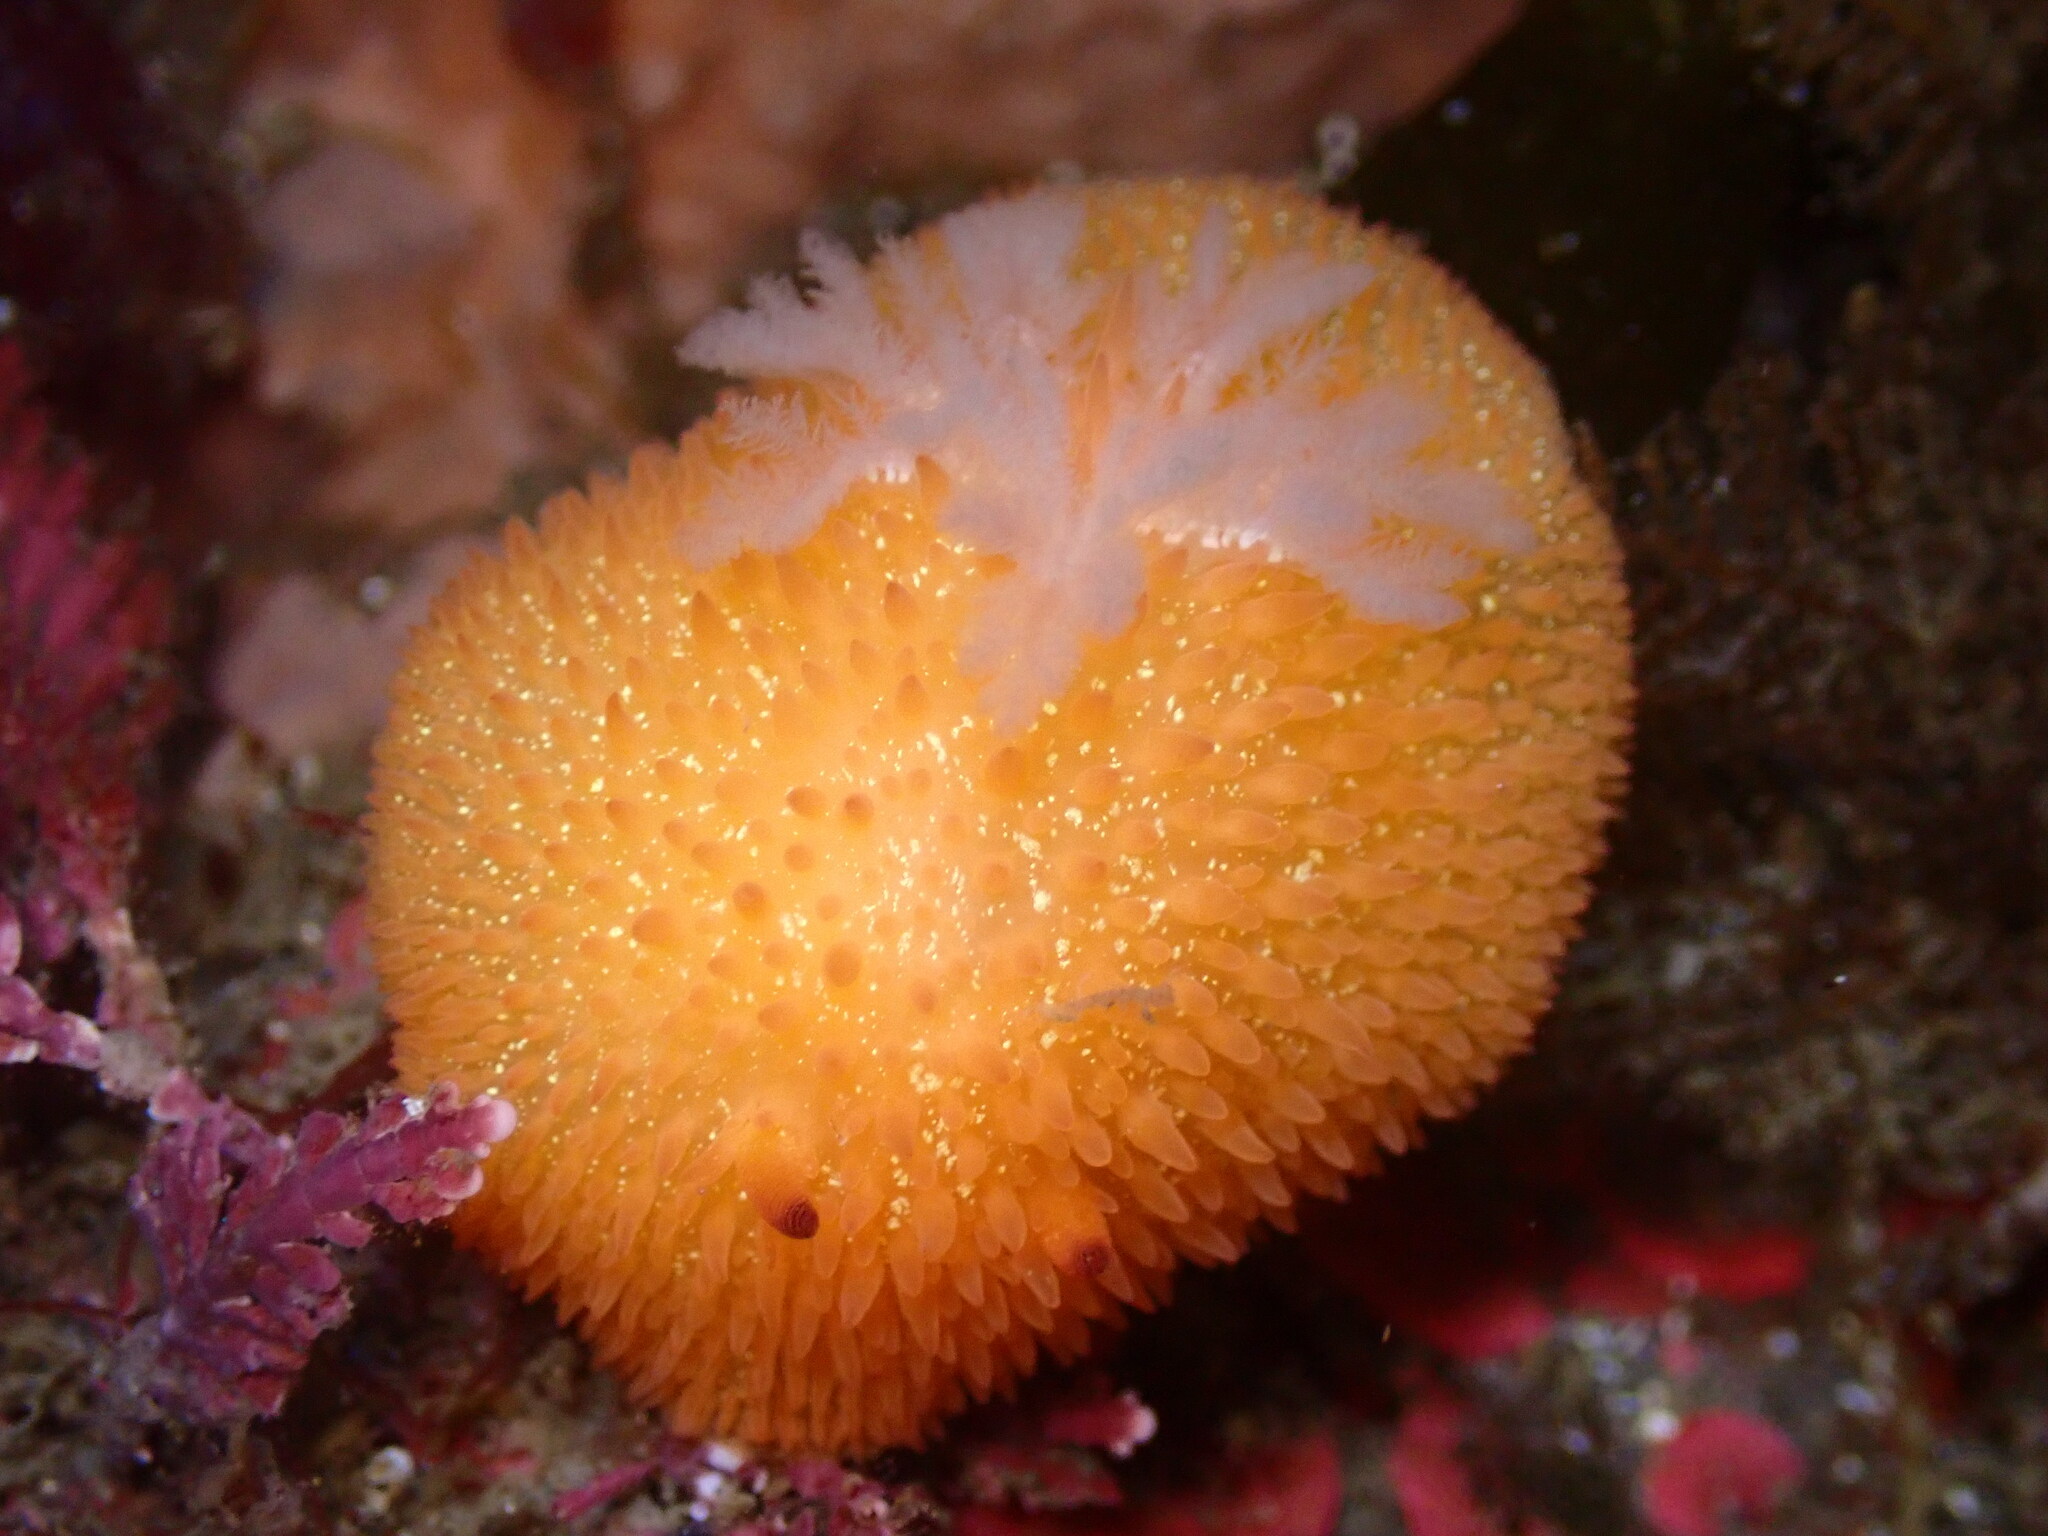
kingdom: Animalia
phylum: Mollusca
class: Gastropoda
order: Nudibranchia
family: Onchidorididae
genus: Acanthodoris
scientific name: Acanthodoris lutea
